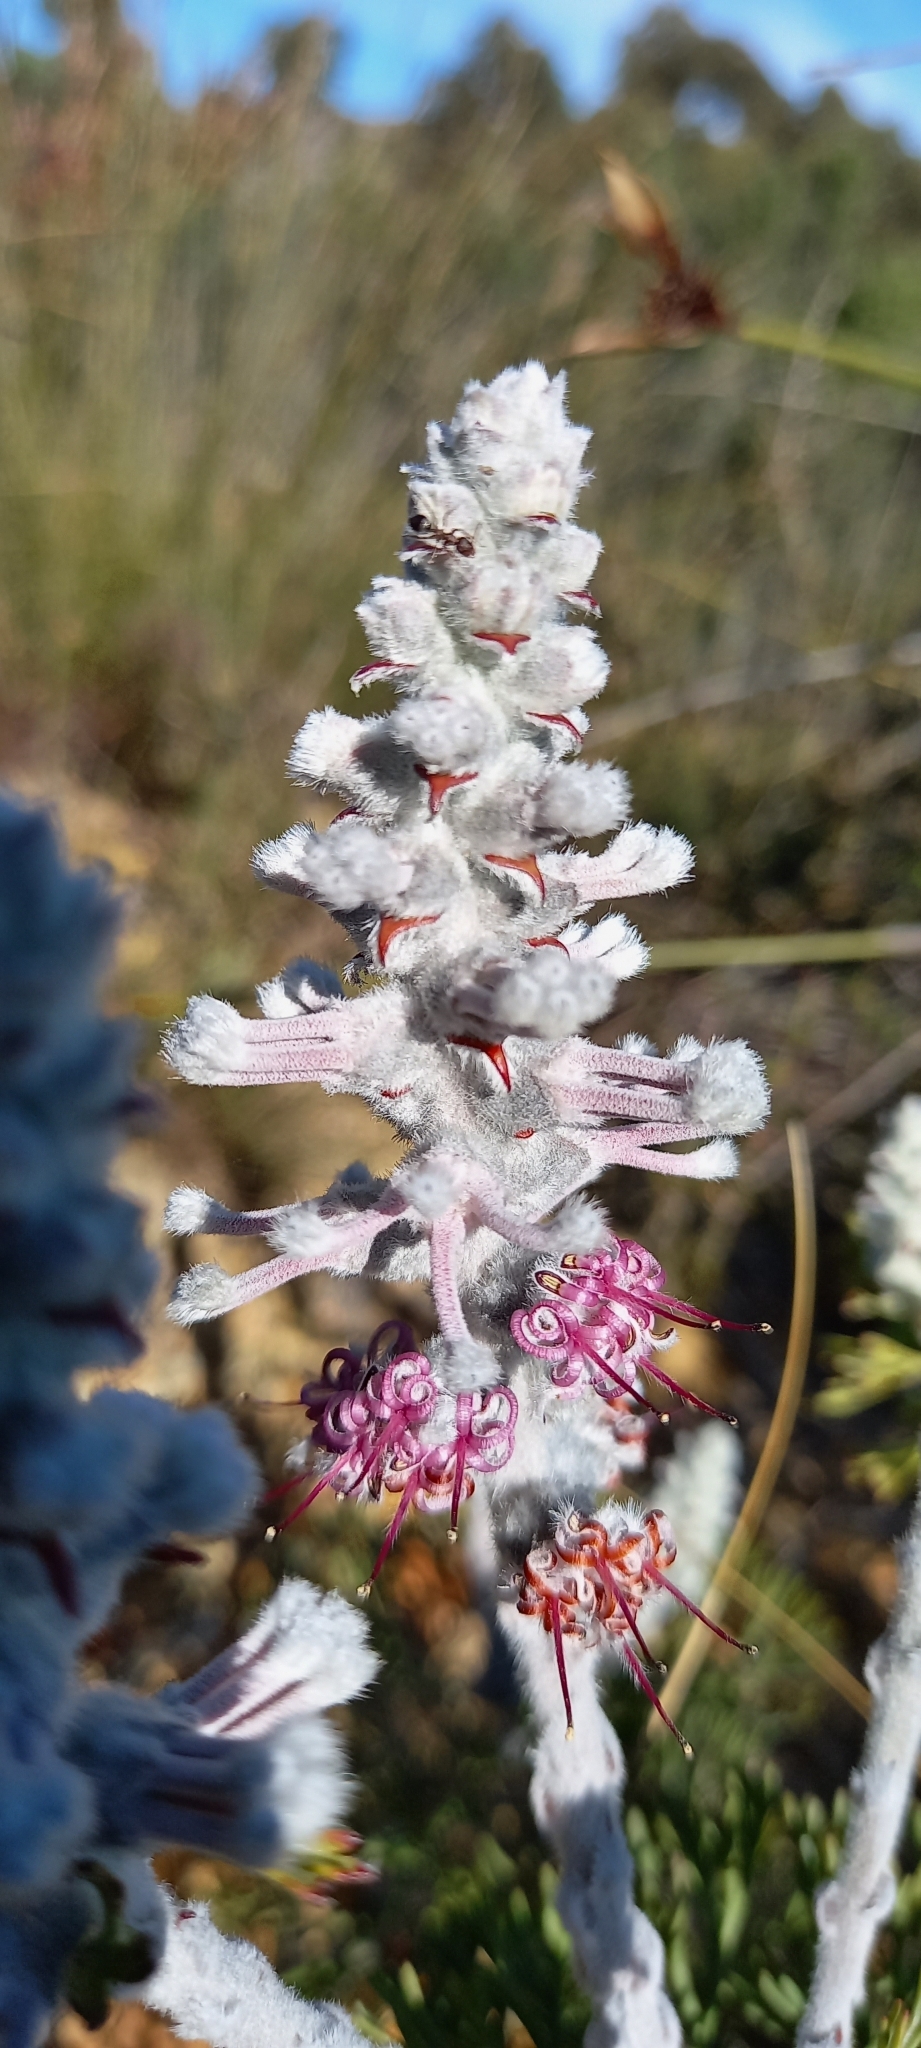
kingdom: Plantae
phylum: Tracheophyta
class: Magnoliopsida
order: Proteales
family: Proteaceae
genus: Paranomus
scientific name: Paranomus bolusii
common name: Overberg sceptre
